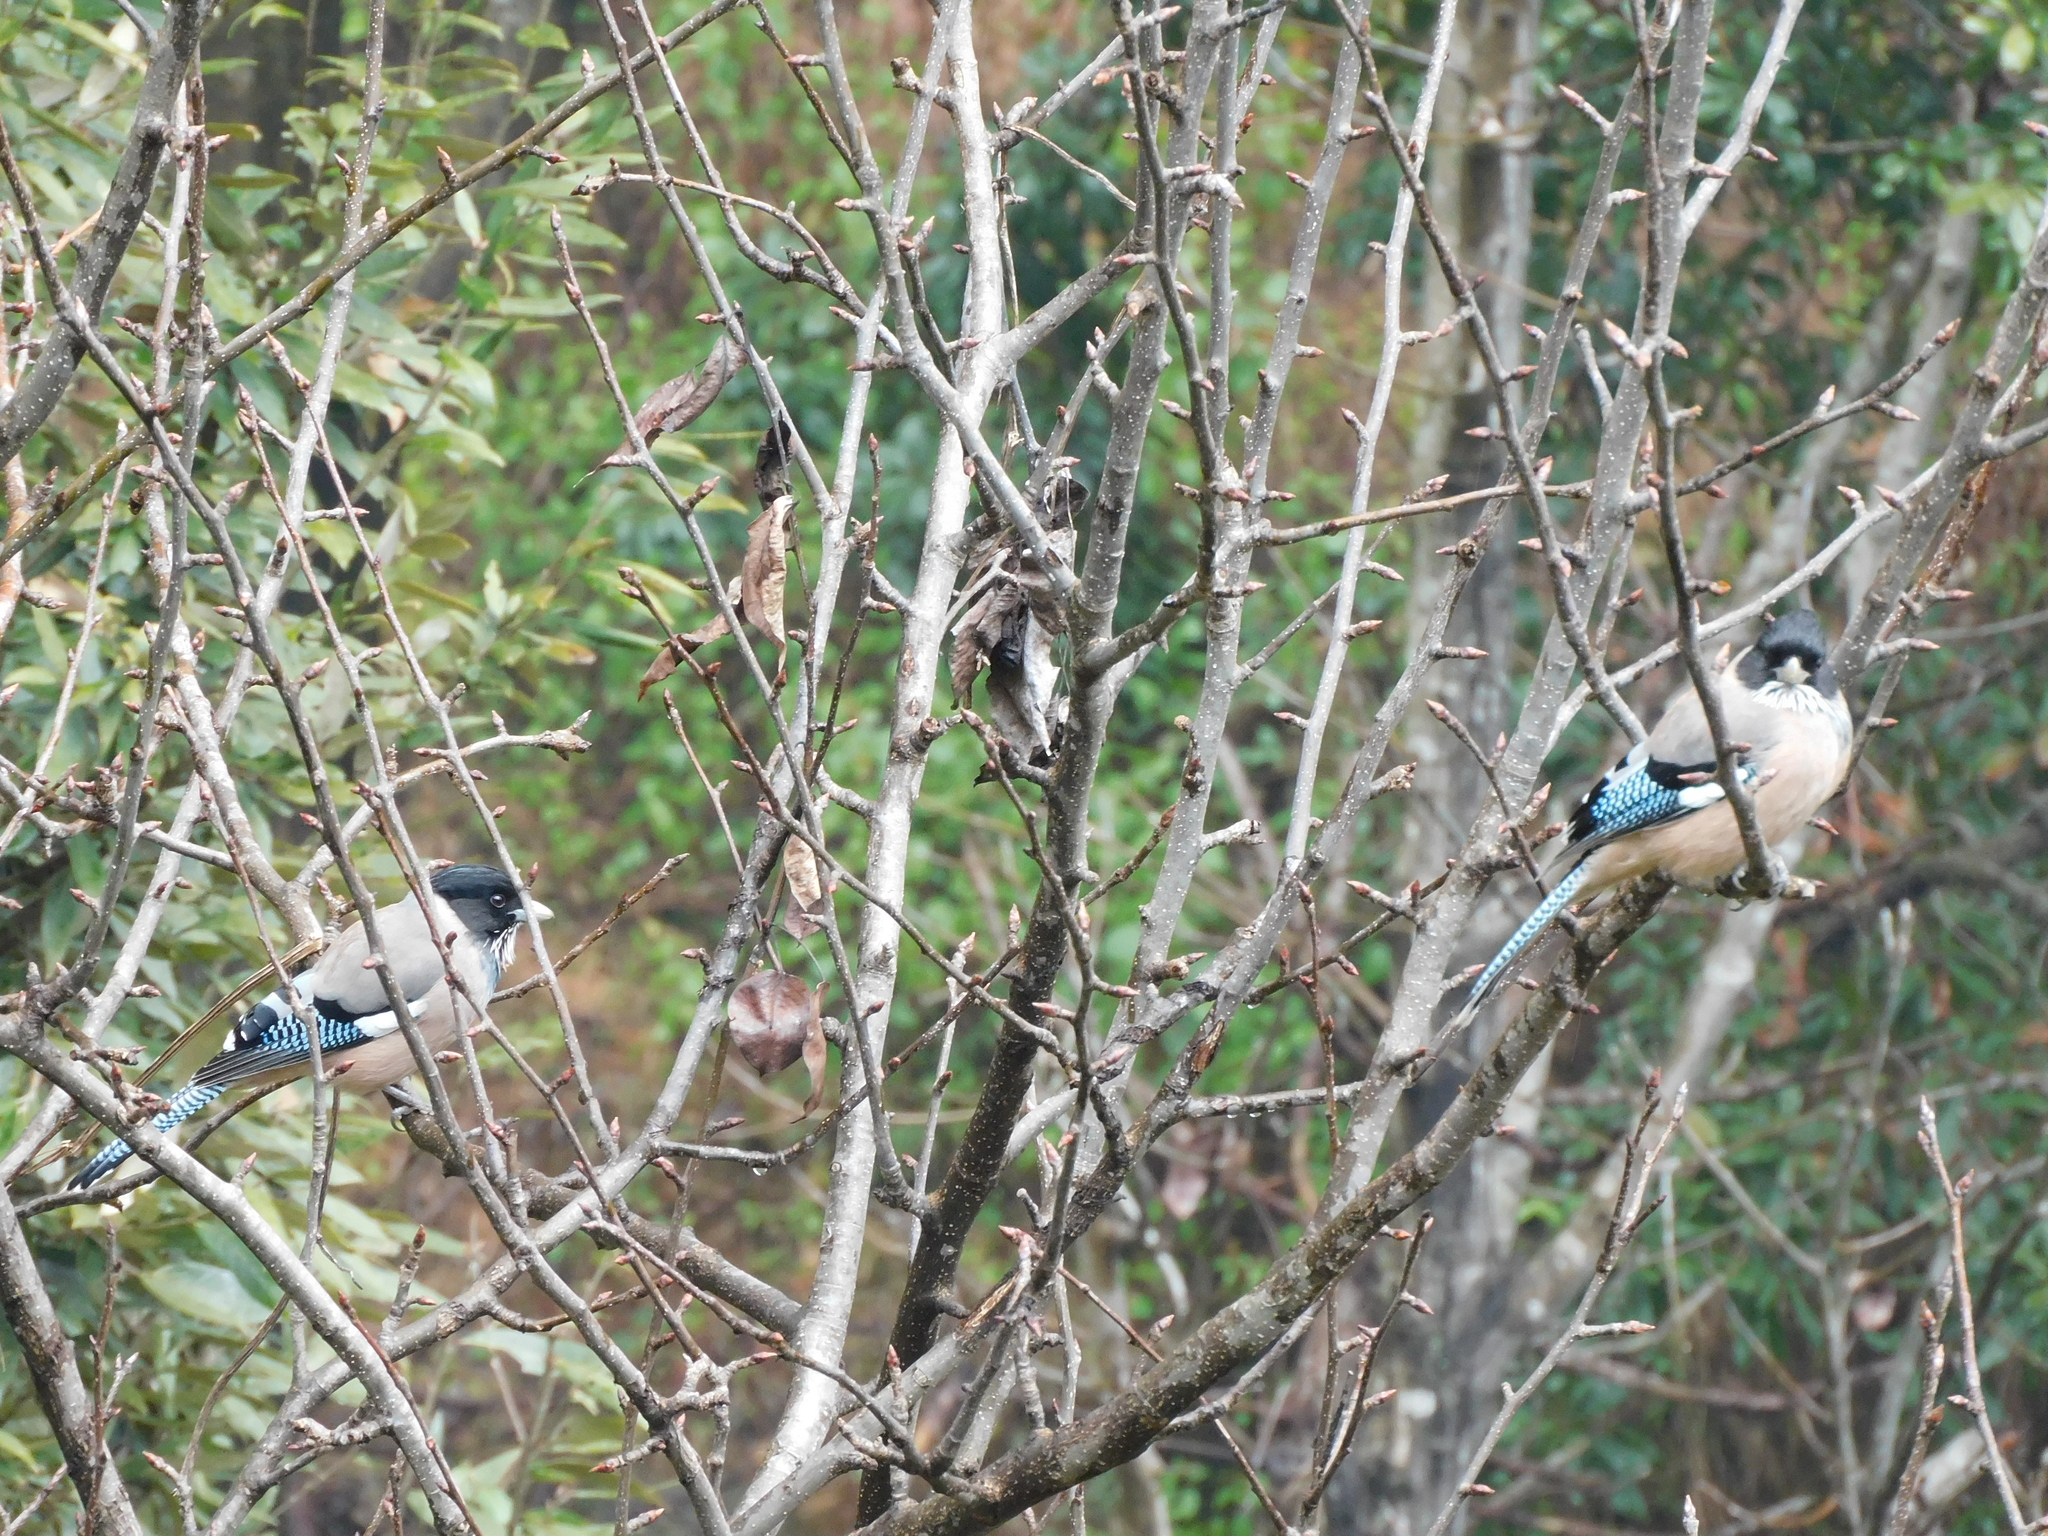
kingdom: Animalia
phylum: Chordata
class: Aves
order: Passeriformes
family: Corvidae
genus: Garrulus
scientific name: Garrulus lanceolatus
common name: Black-headed jay
